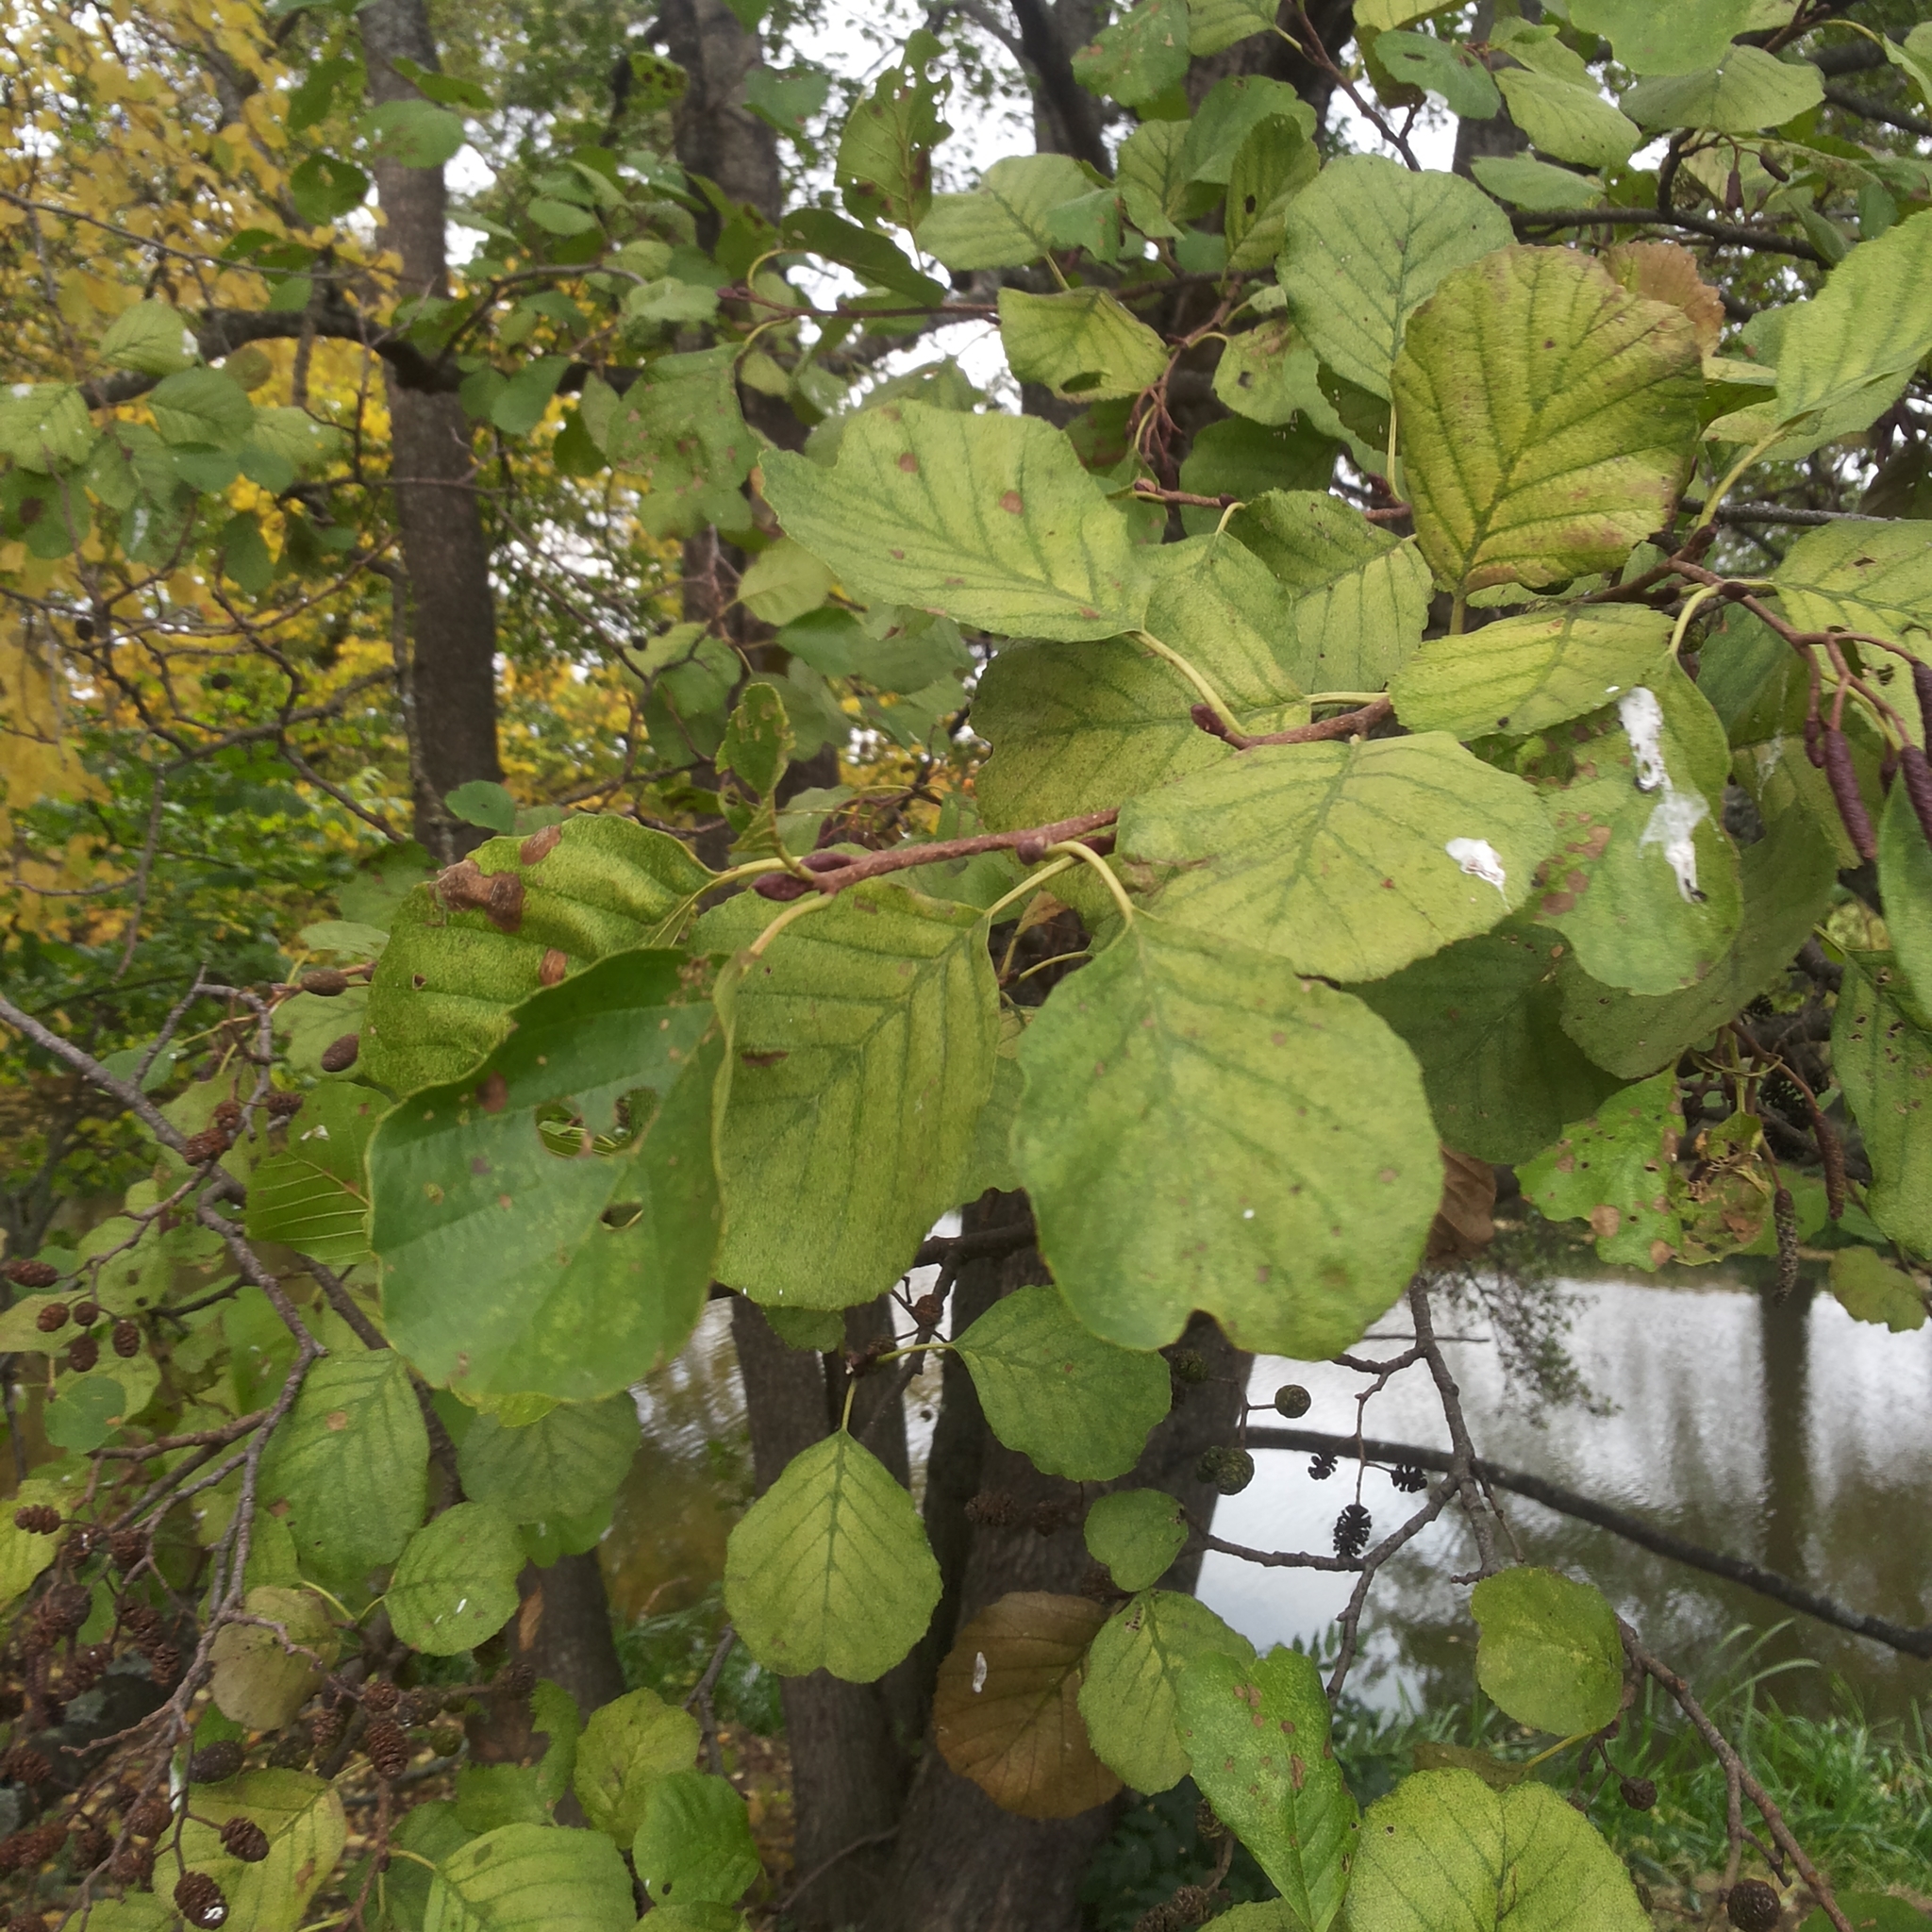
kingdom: Plantae
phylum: Tracheophyta
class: Magnoliopsida
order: Fagales
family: Betulaceae
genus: Alnus
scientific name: Alnus glutinosa
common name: Black alder
